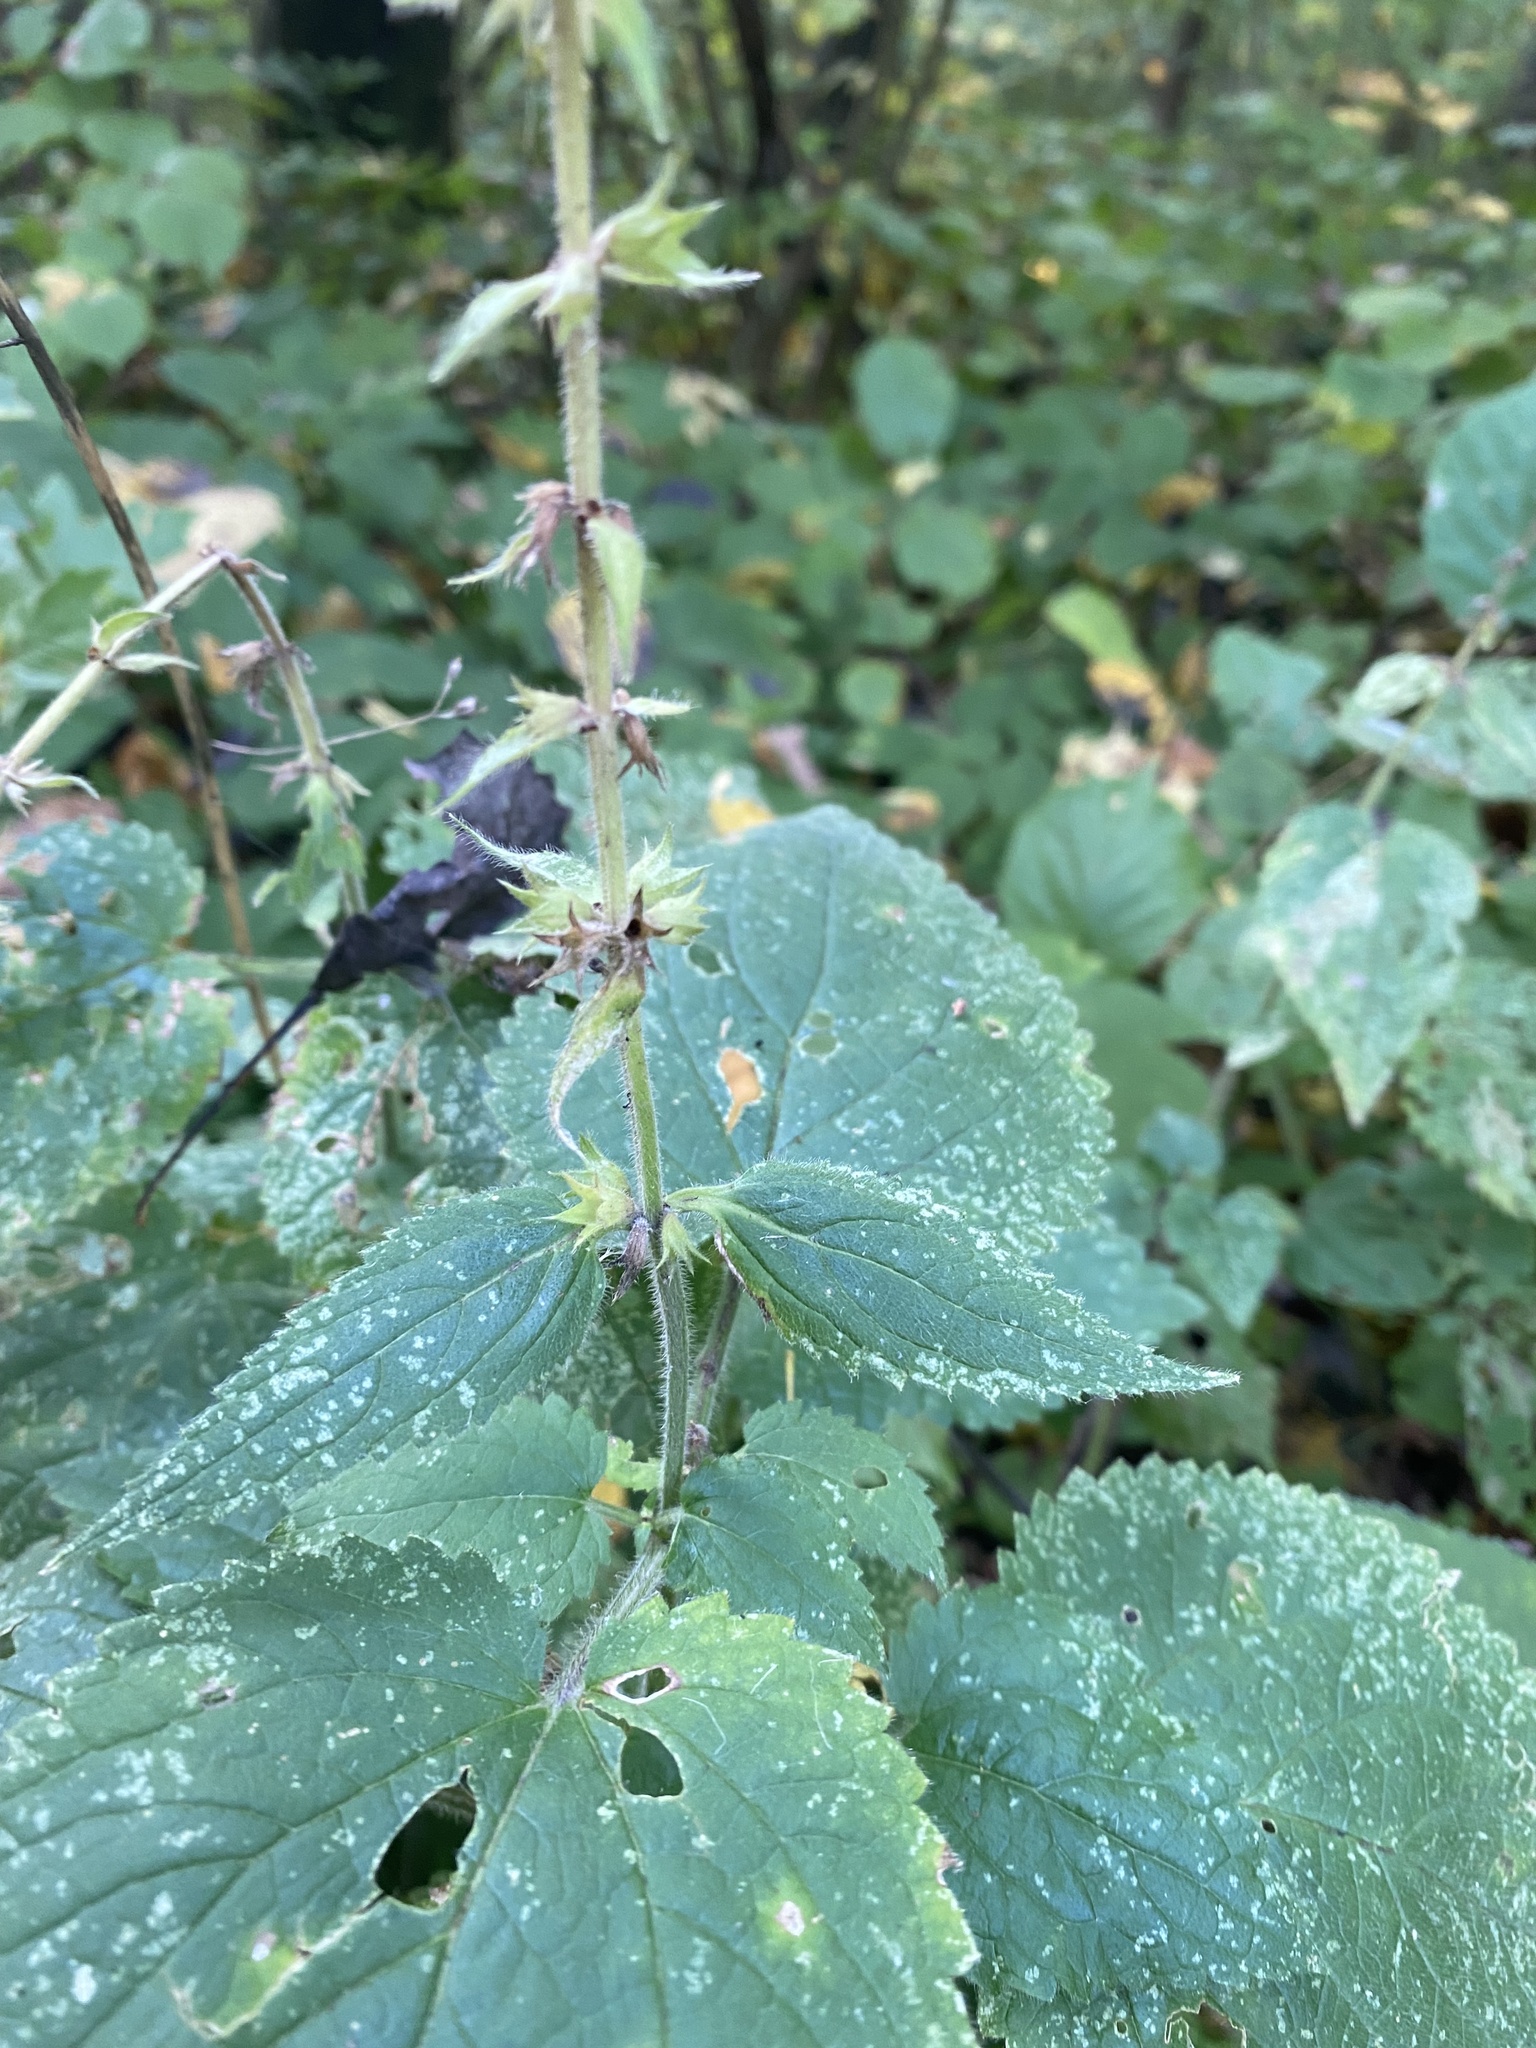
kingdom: Plantae
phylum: Tracheophyta
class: Magnoliopsida
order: Lamiales
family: Lamiaceae
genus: Stachys
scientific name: Stachys sylvatica
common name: Hedge woundwort
